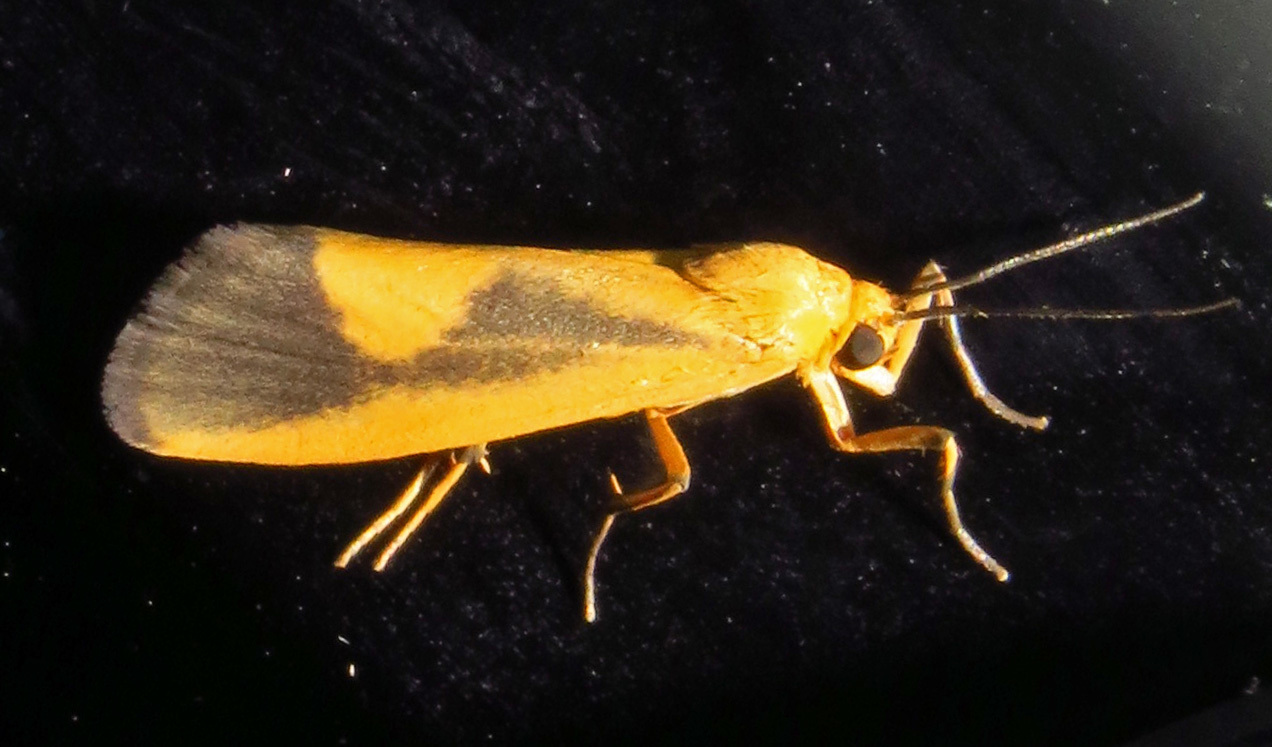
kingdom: Animalia
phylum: Arthropoda
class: Insecta
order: Lepidoptera
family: Erebidae
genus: Cisthene
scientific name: Cisthene plumbea
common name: Lead colored lichen moth
